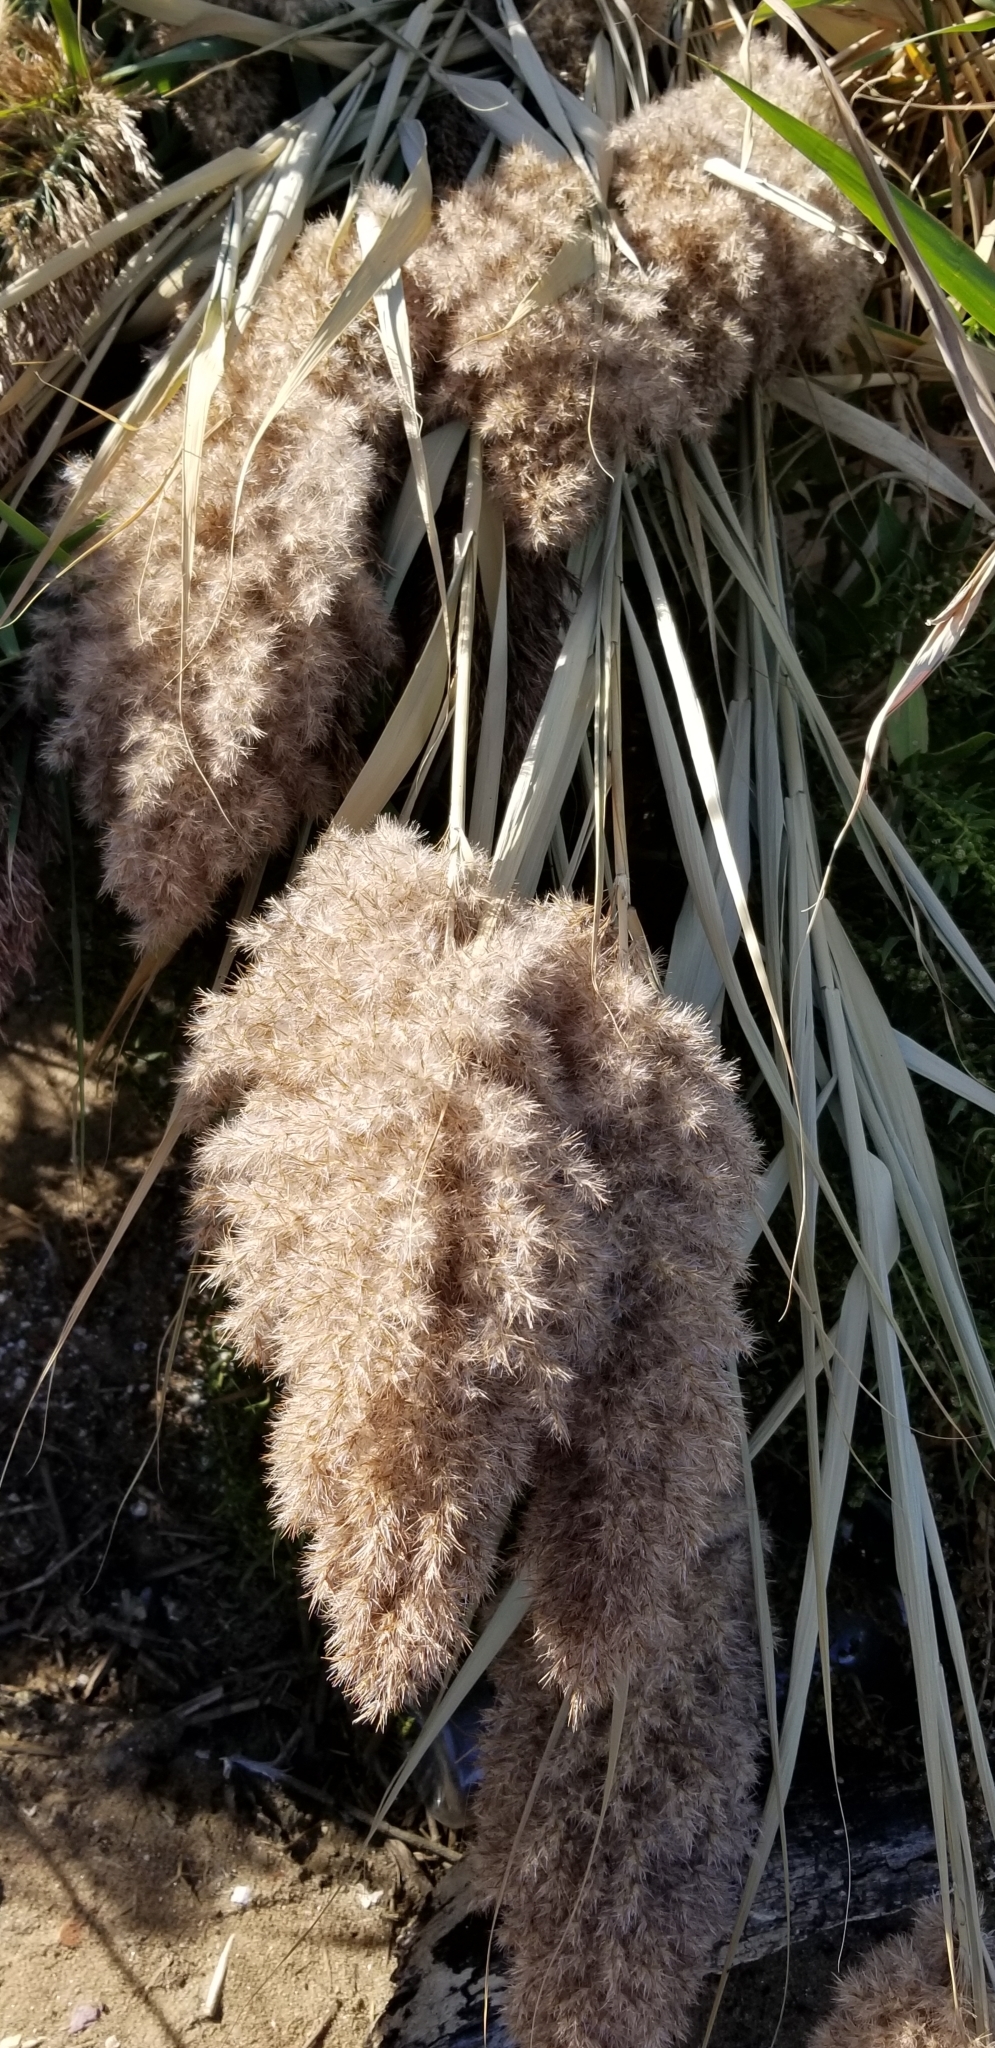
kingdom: Plantae
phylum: Tracheophyta
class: Liliopsida
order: Poales
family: Poaceae
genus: Phragmites
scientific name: Phragmites australis
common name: Common reed
